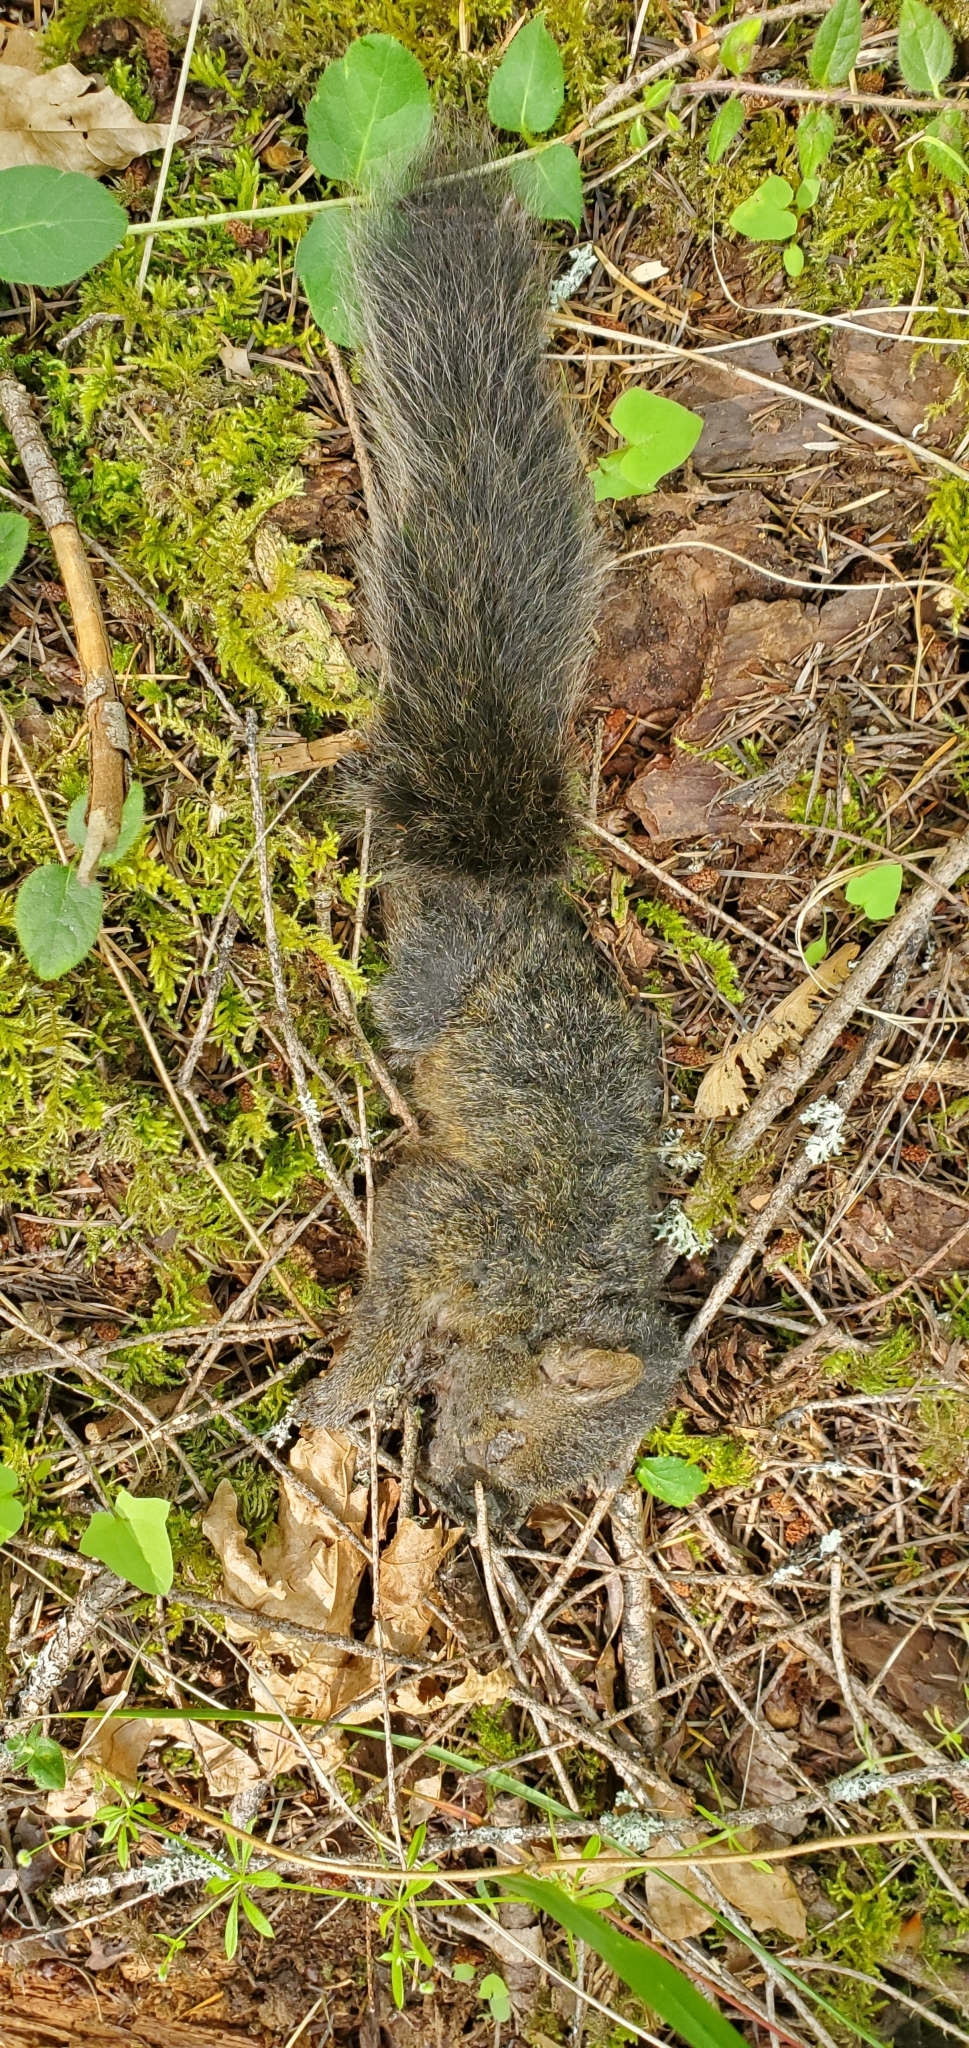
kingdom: Animalia
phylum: Chordata
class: Mammalia
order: Rodentia
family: Sciuridae
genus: Sciurus
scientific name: Sciurus carolinensis
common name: Eastern gray squirrel
